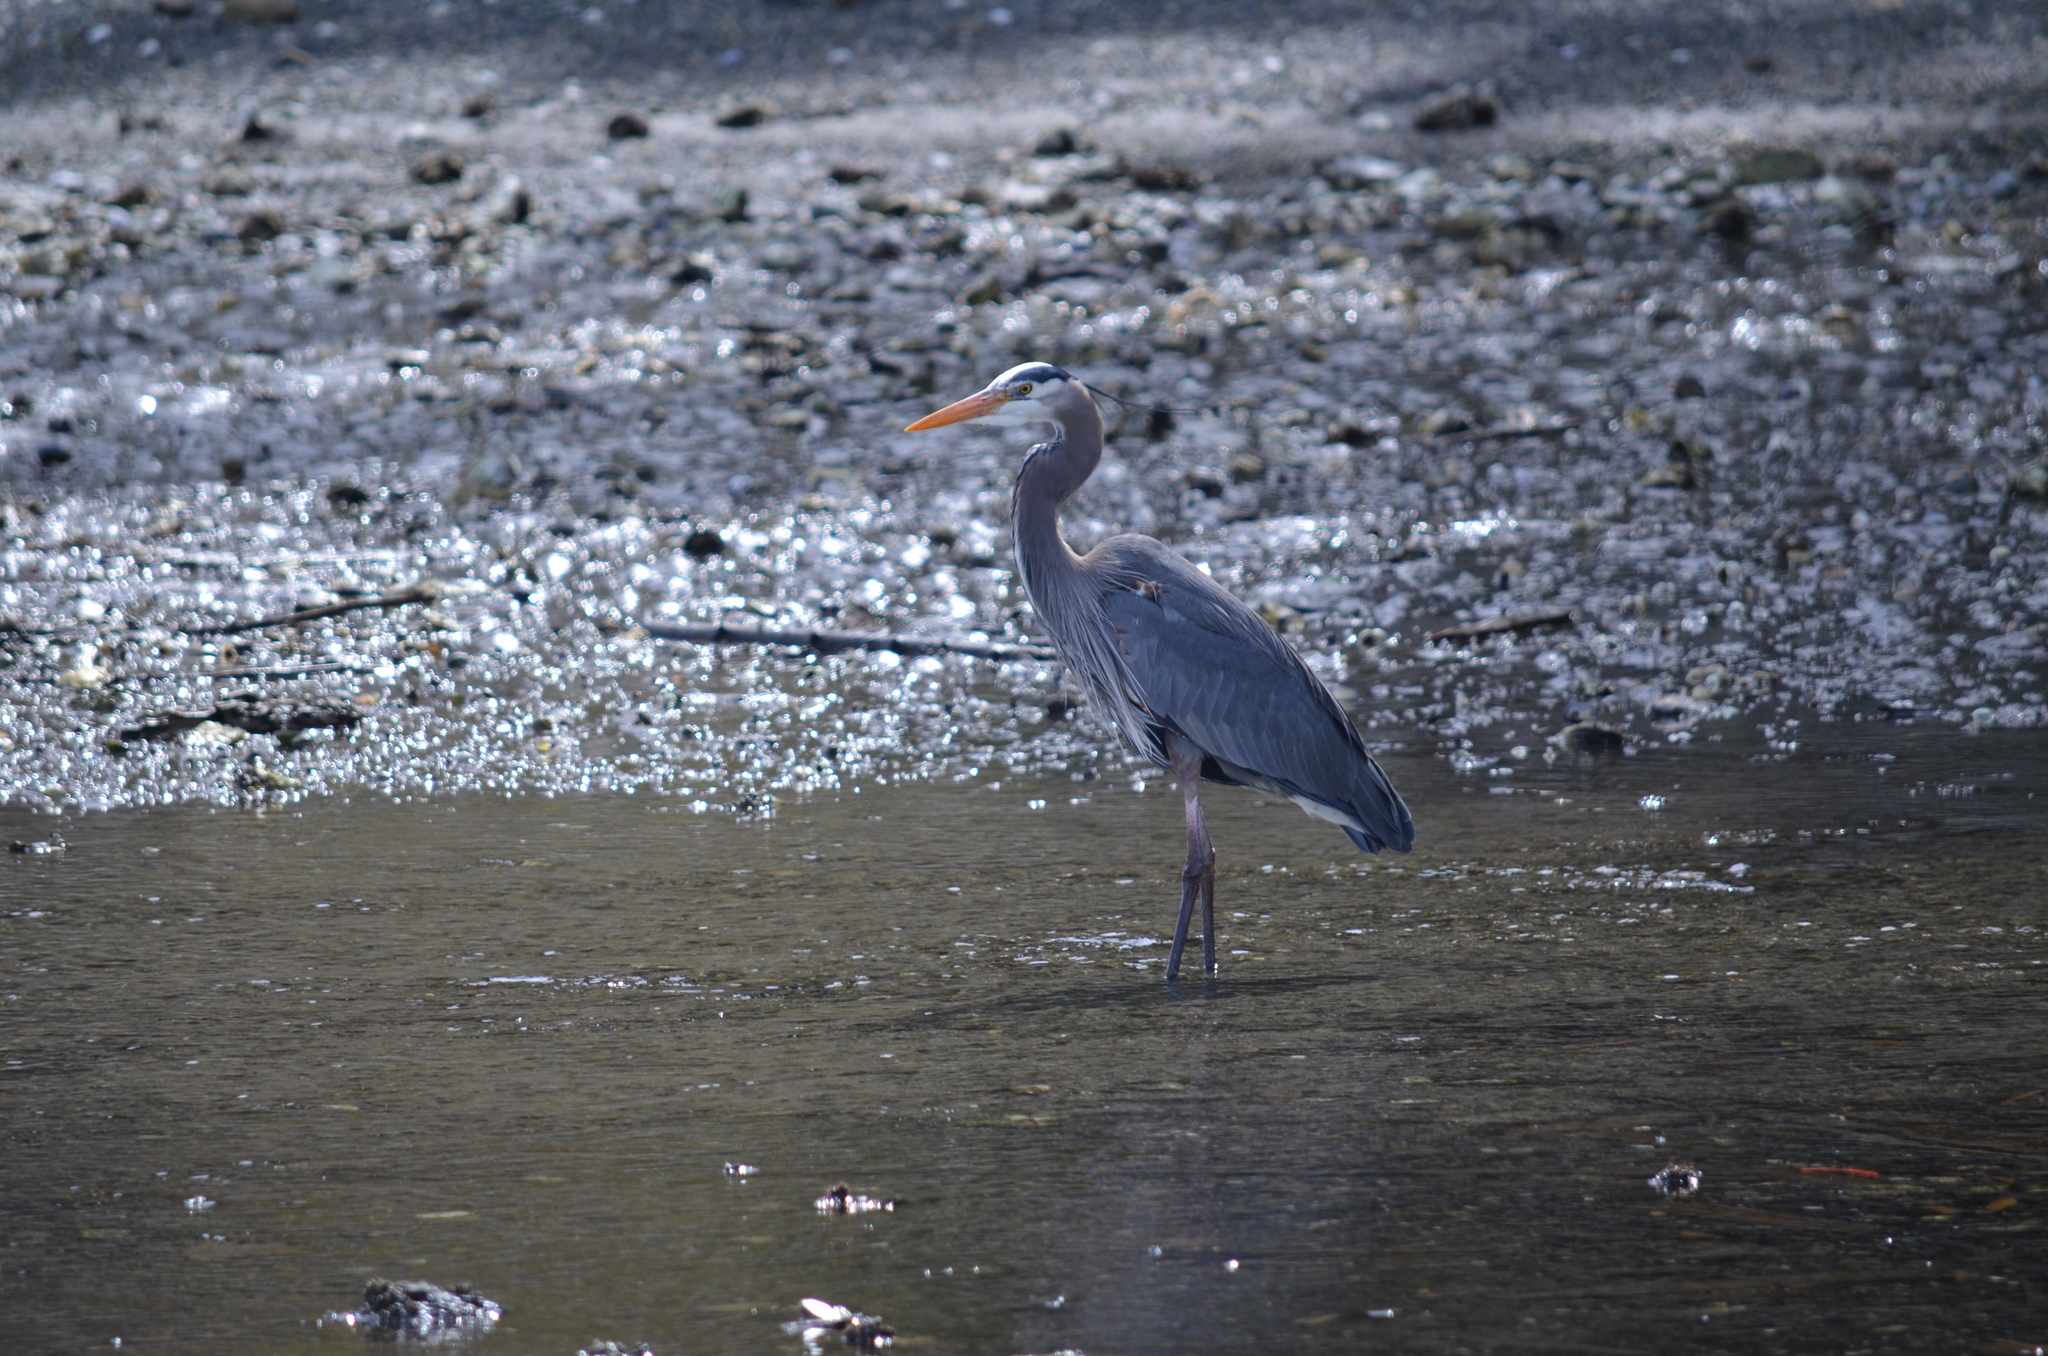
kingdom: Animalia
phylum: Chordata
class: Aves
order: Pelecaniformes
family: Ardeidae
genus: Ardea
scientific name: Ardea herodias
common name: Great blue heron
